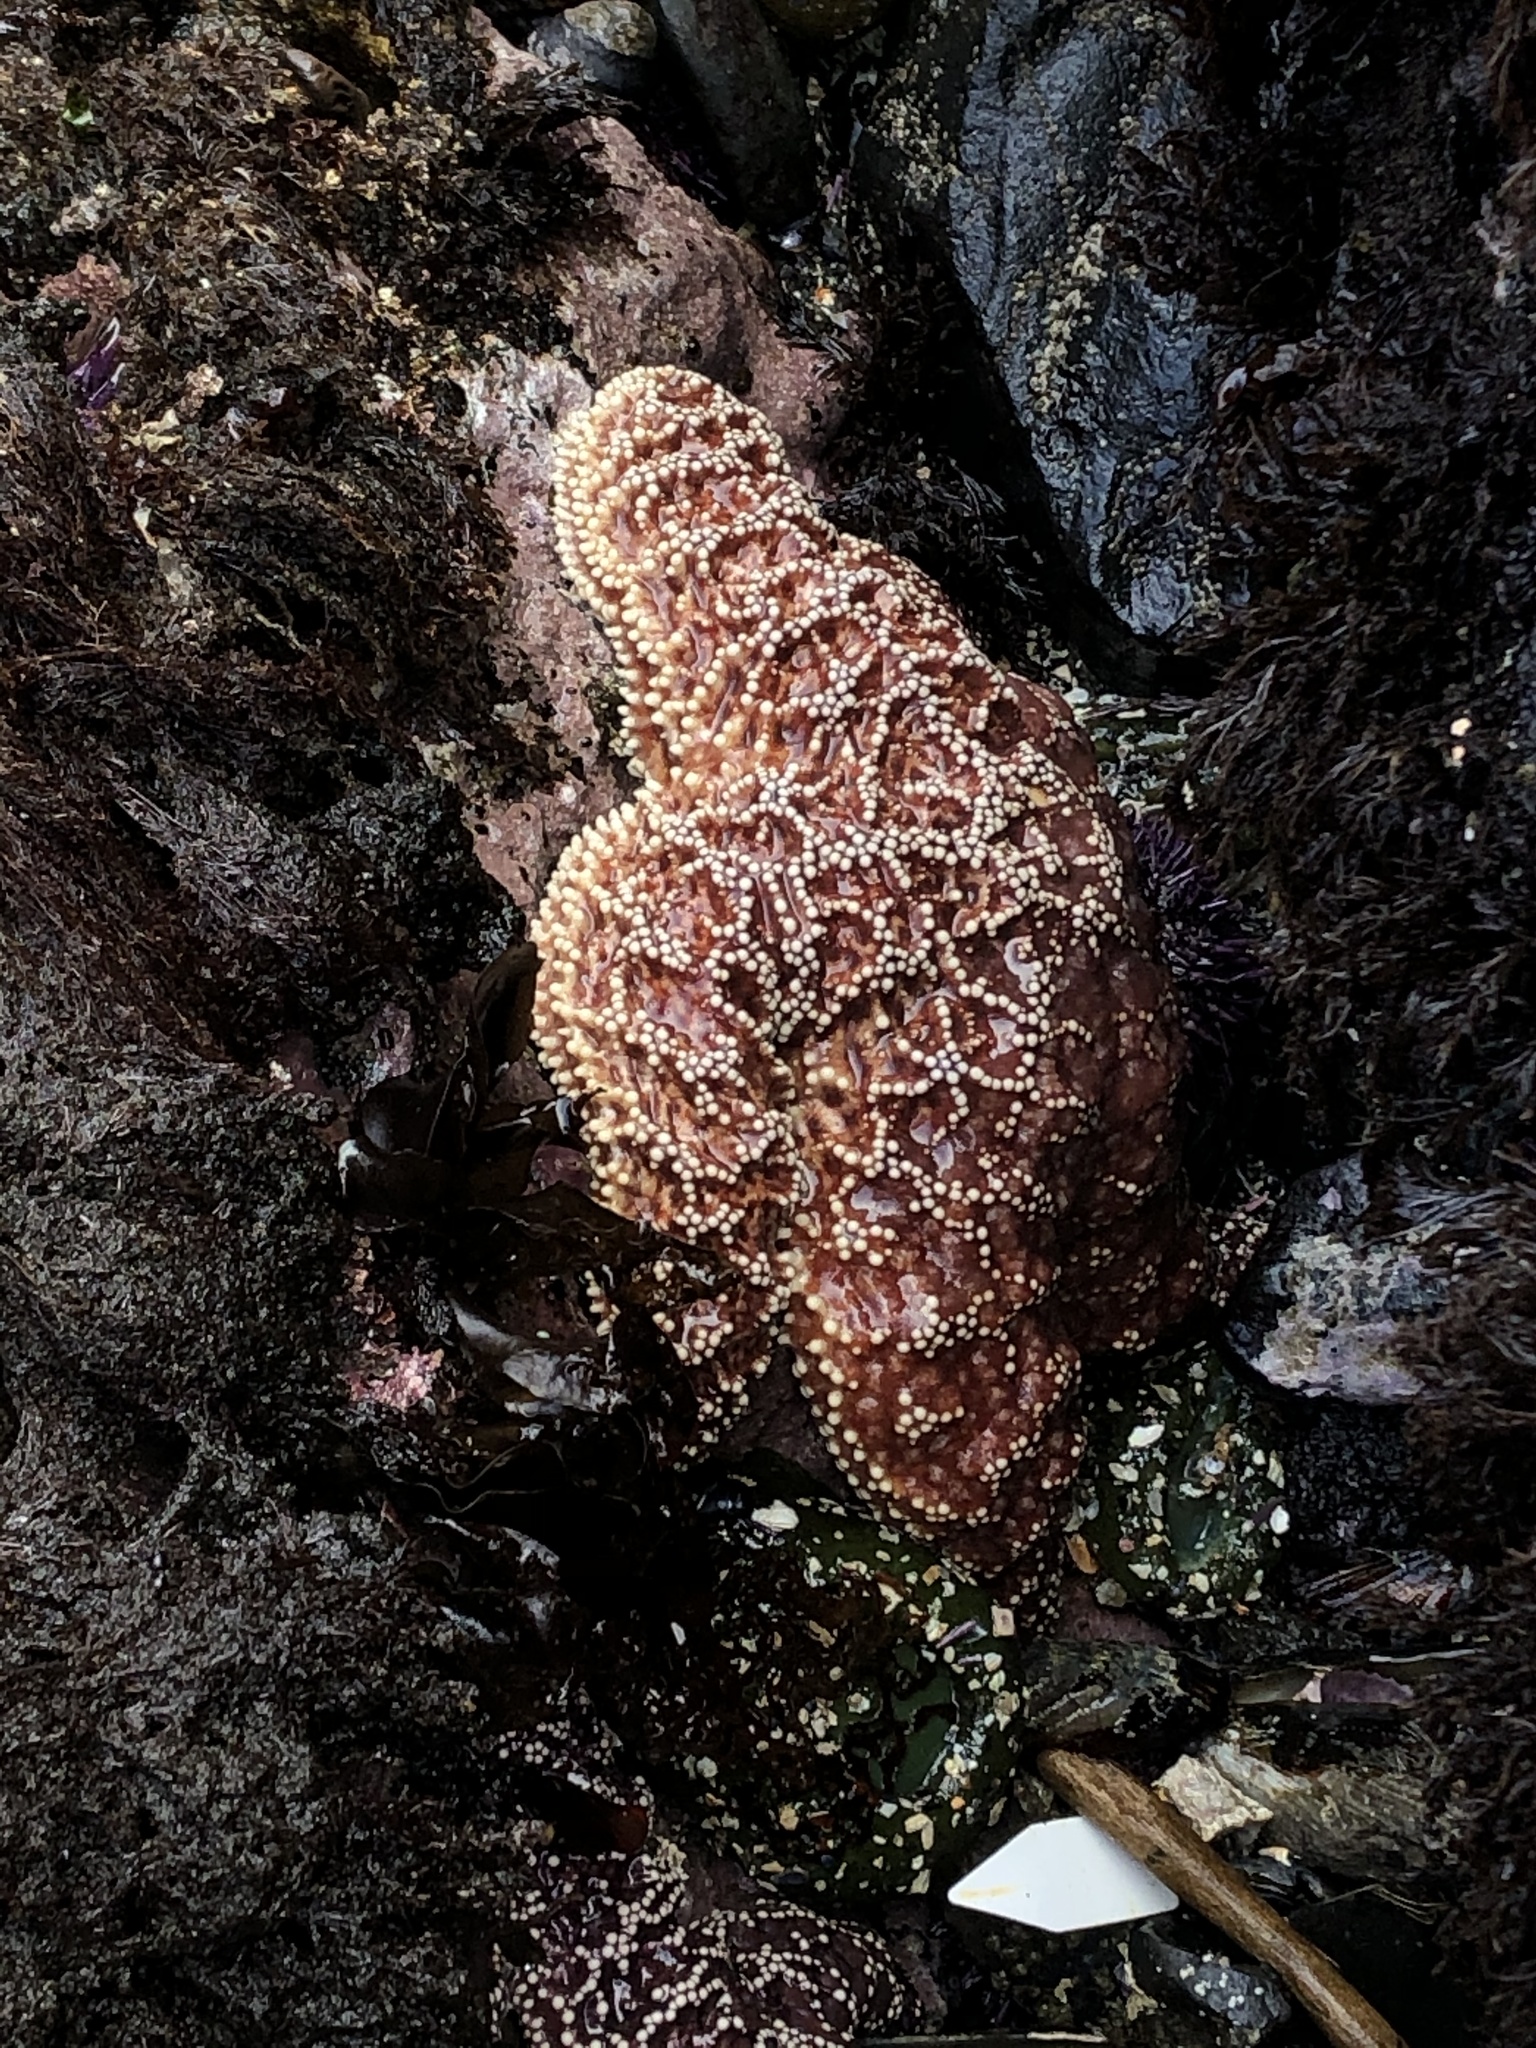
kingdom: Animalia
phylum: Echinodermata
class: Asteroidea
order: Forcipulatida
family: Asteriidae
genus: Pisaster
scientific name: Pisaster ochraceus
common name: Ochre stars
